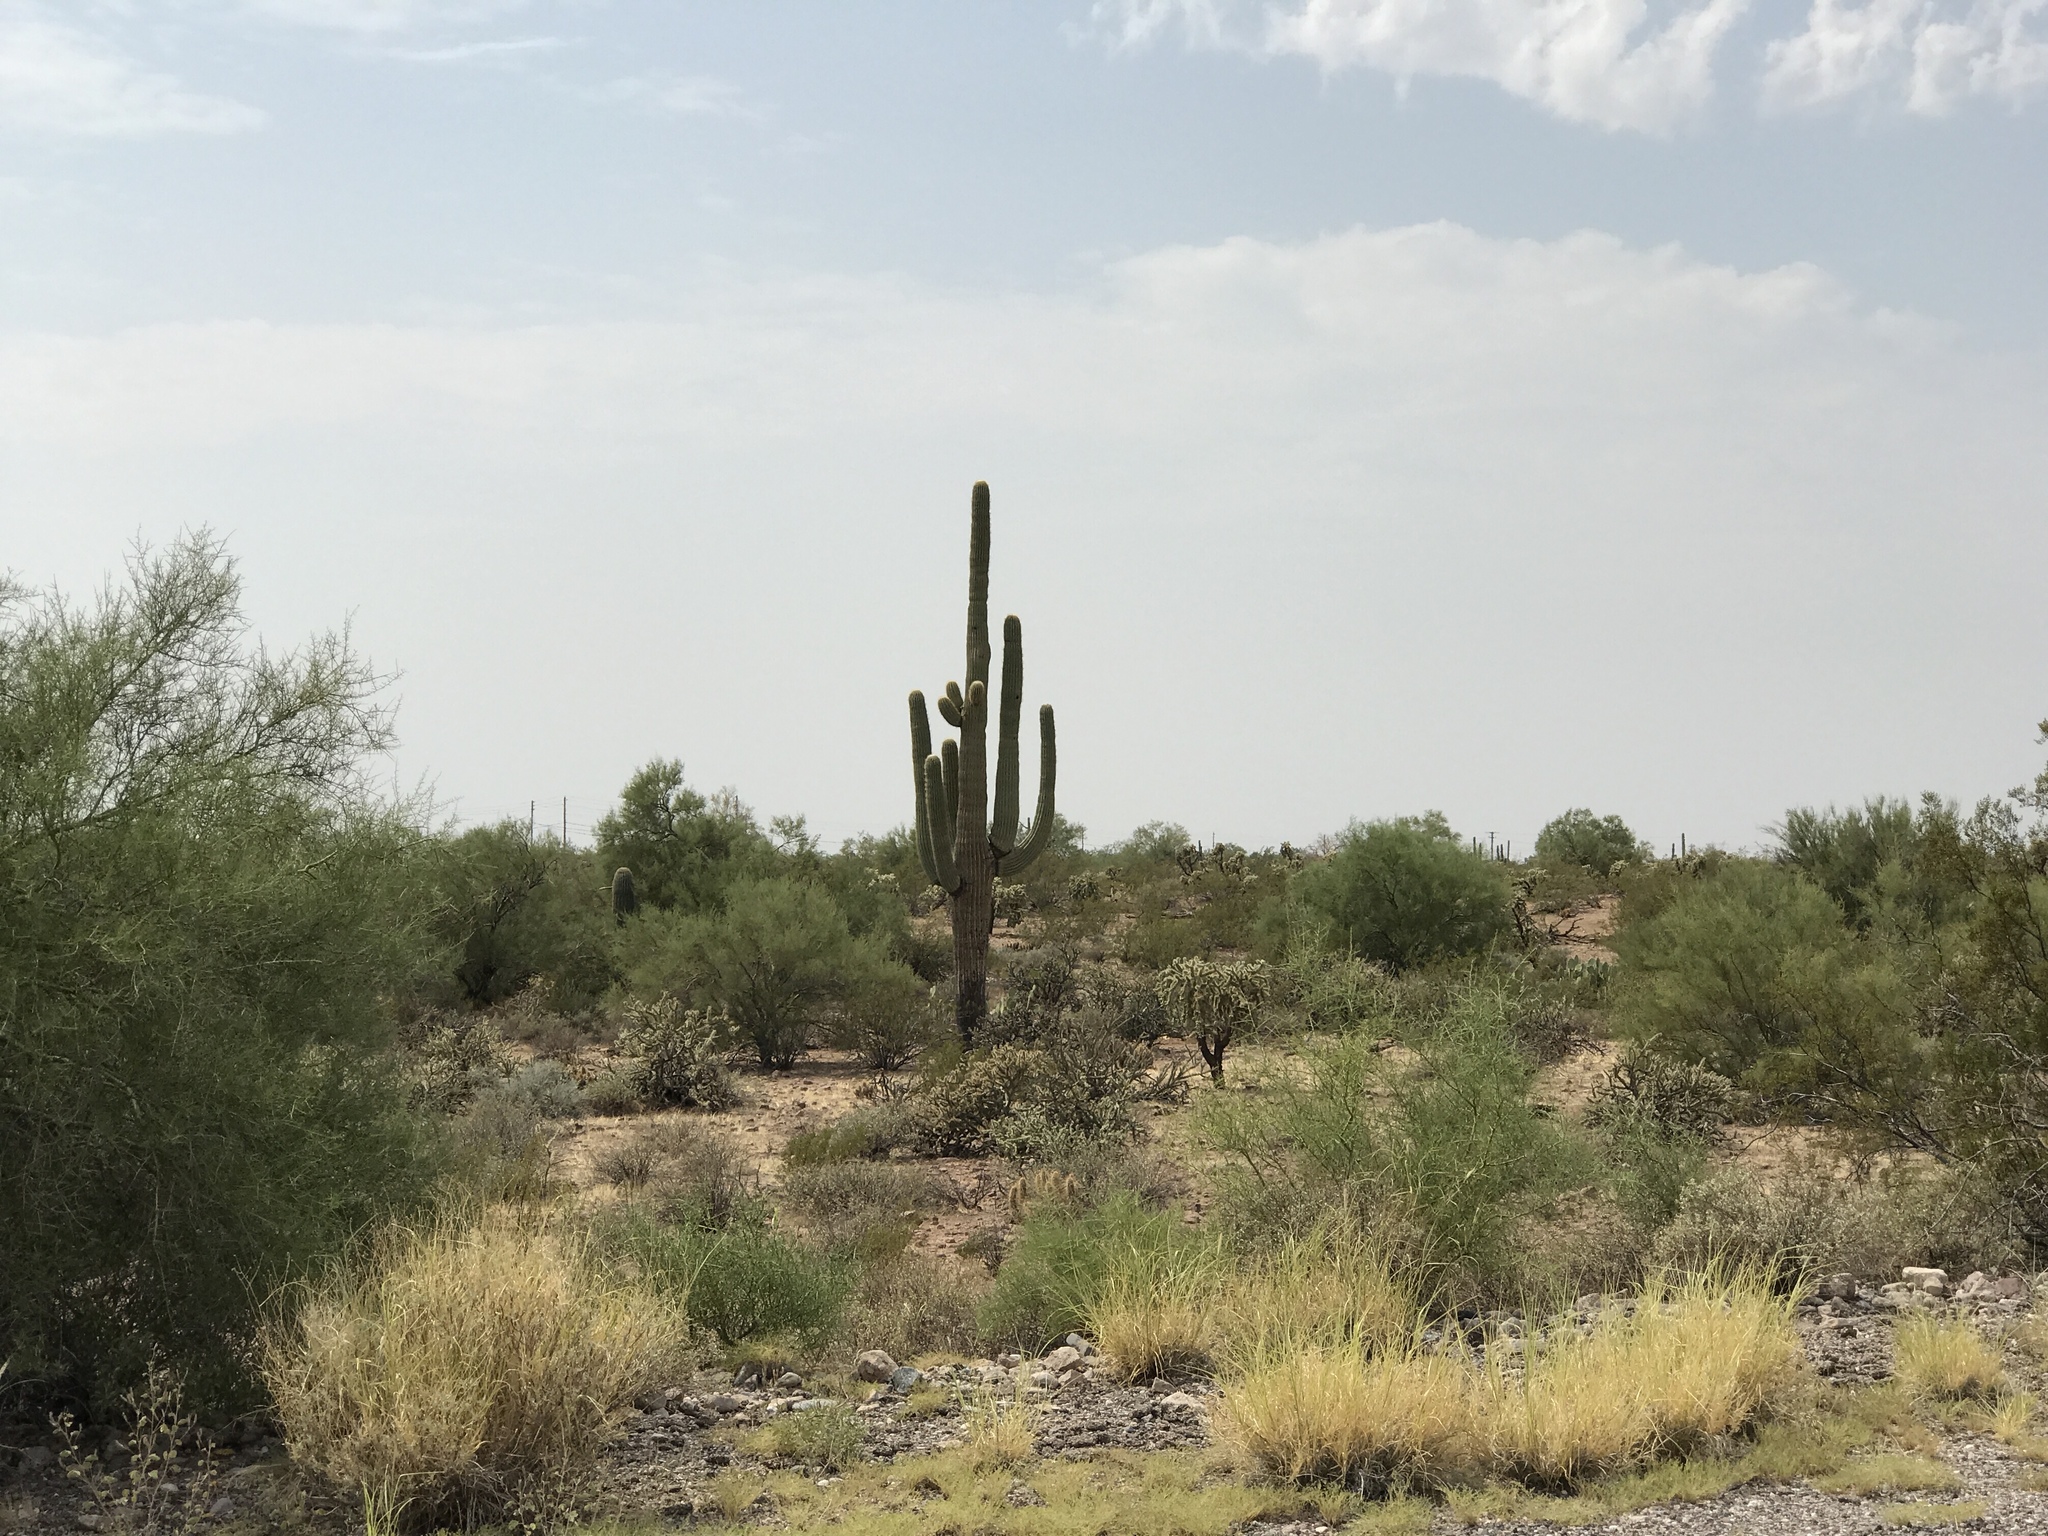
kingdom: Plantae
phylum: Tracheophyta
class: Magnoliopsida
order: Caryophyllales
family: Cactaceae
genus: Carnegiea
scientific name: Carnegiea gigantea
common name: Saguaro
